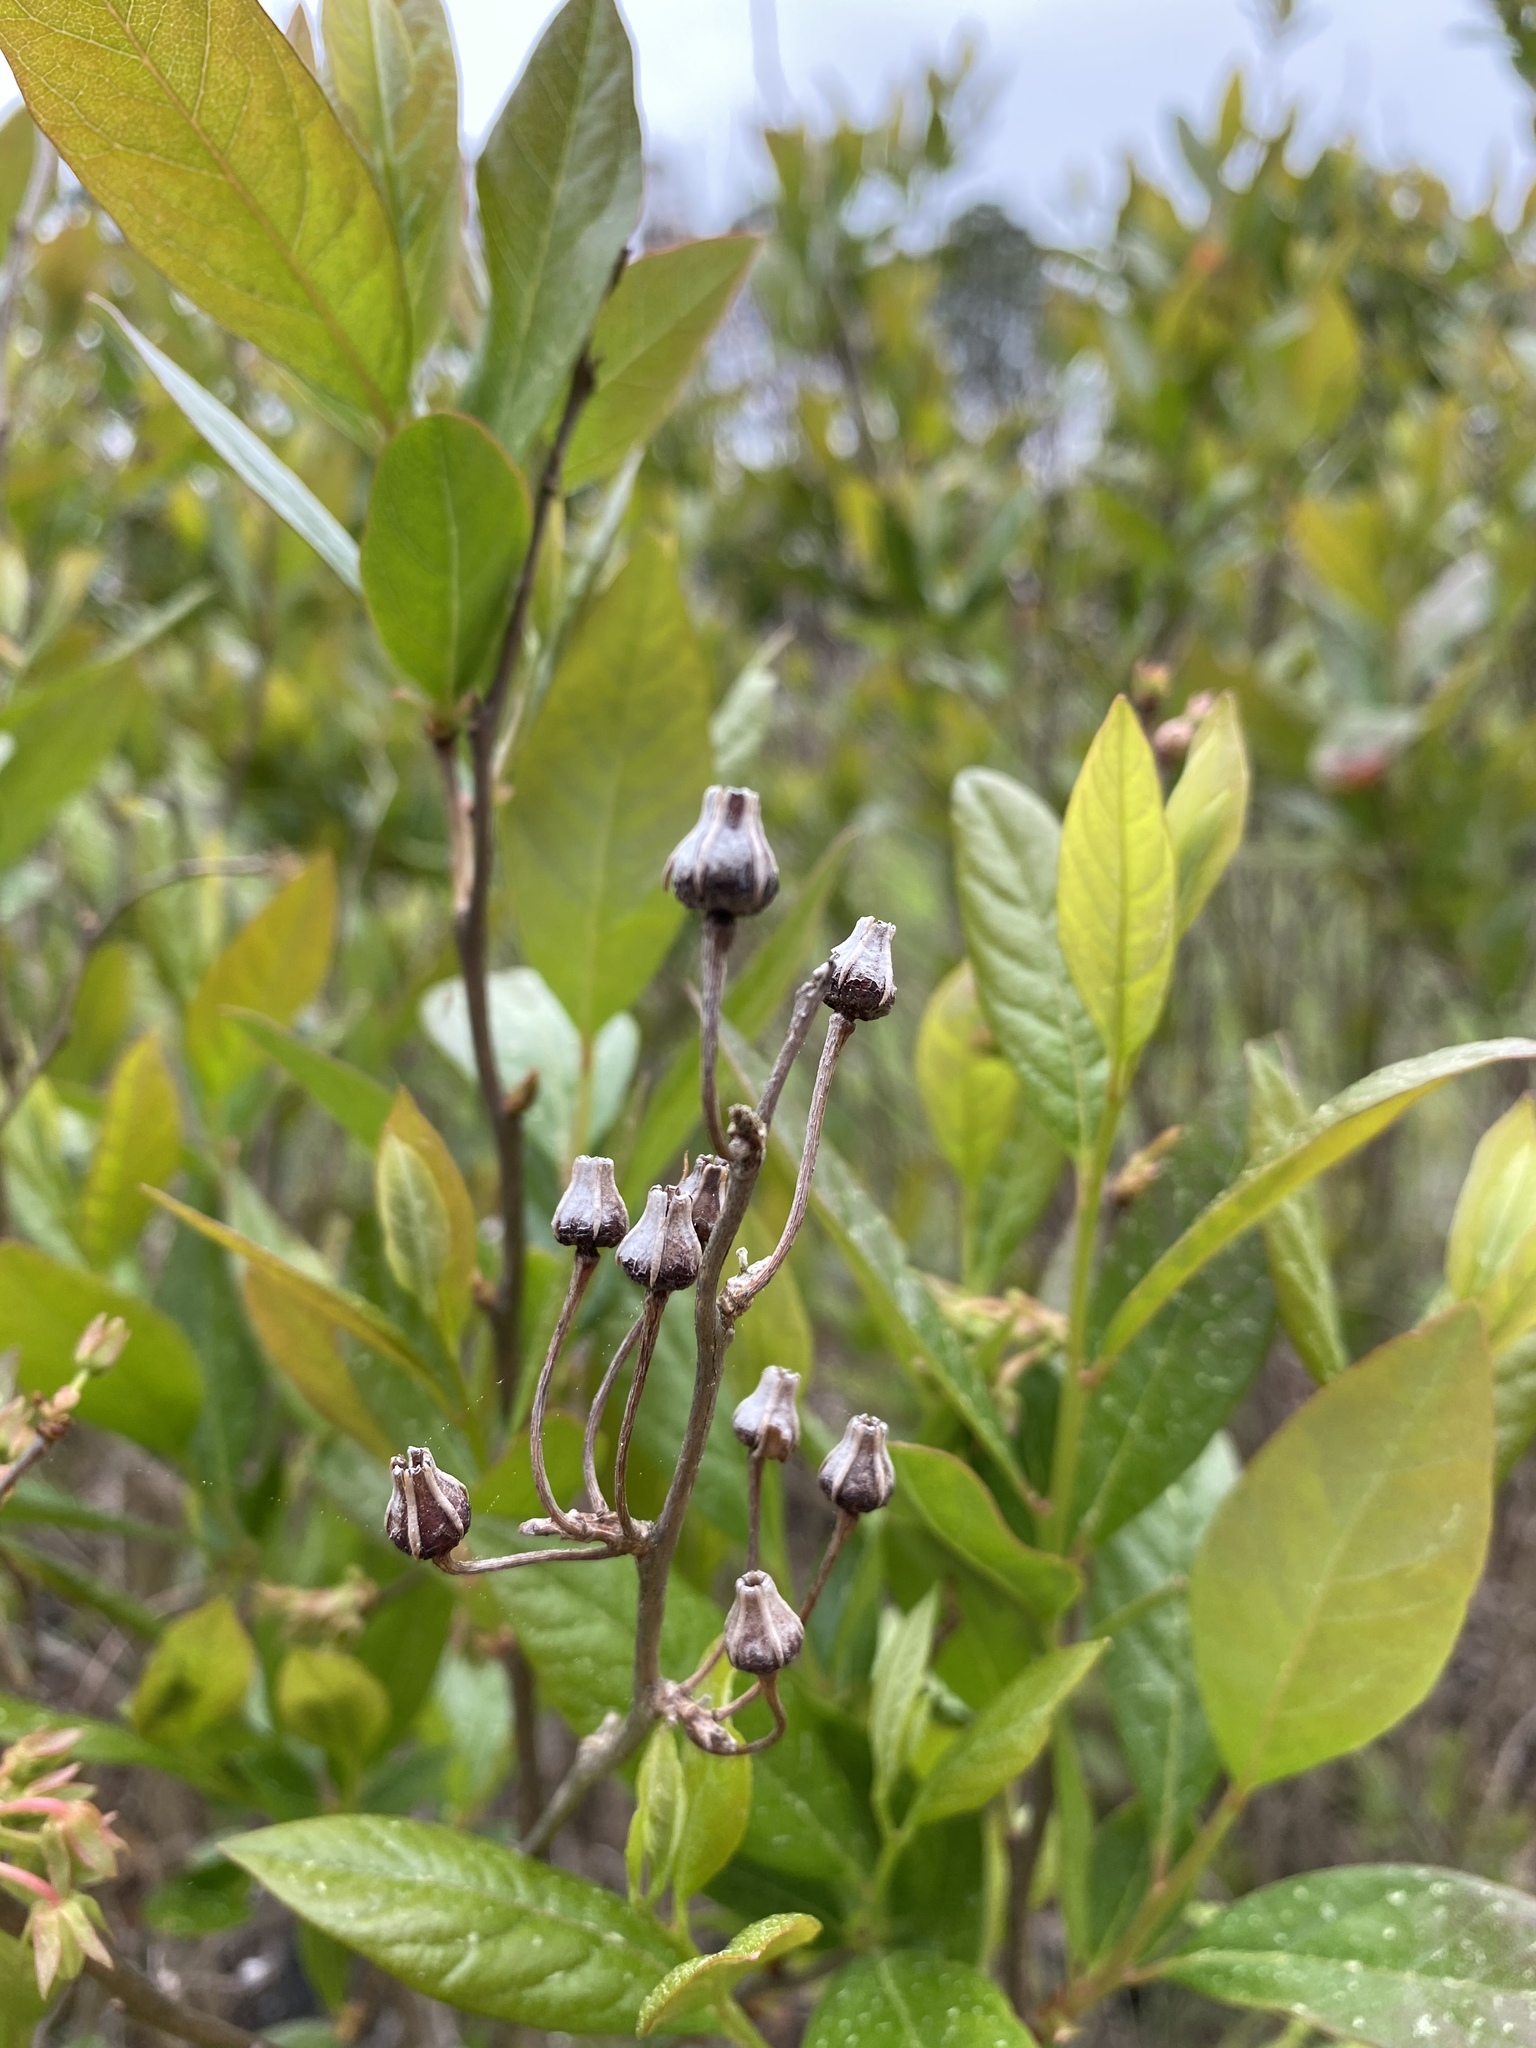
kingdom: Plantae
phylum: Tracheophyta
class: Magnoliopsida
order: Ericales
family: Ericaceae
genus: Lyonia
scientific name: Lyonia mariana
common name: Staggerbush
